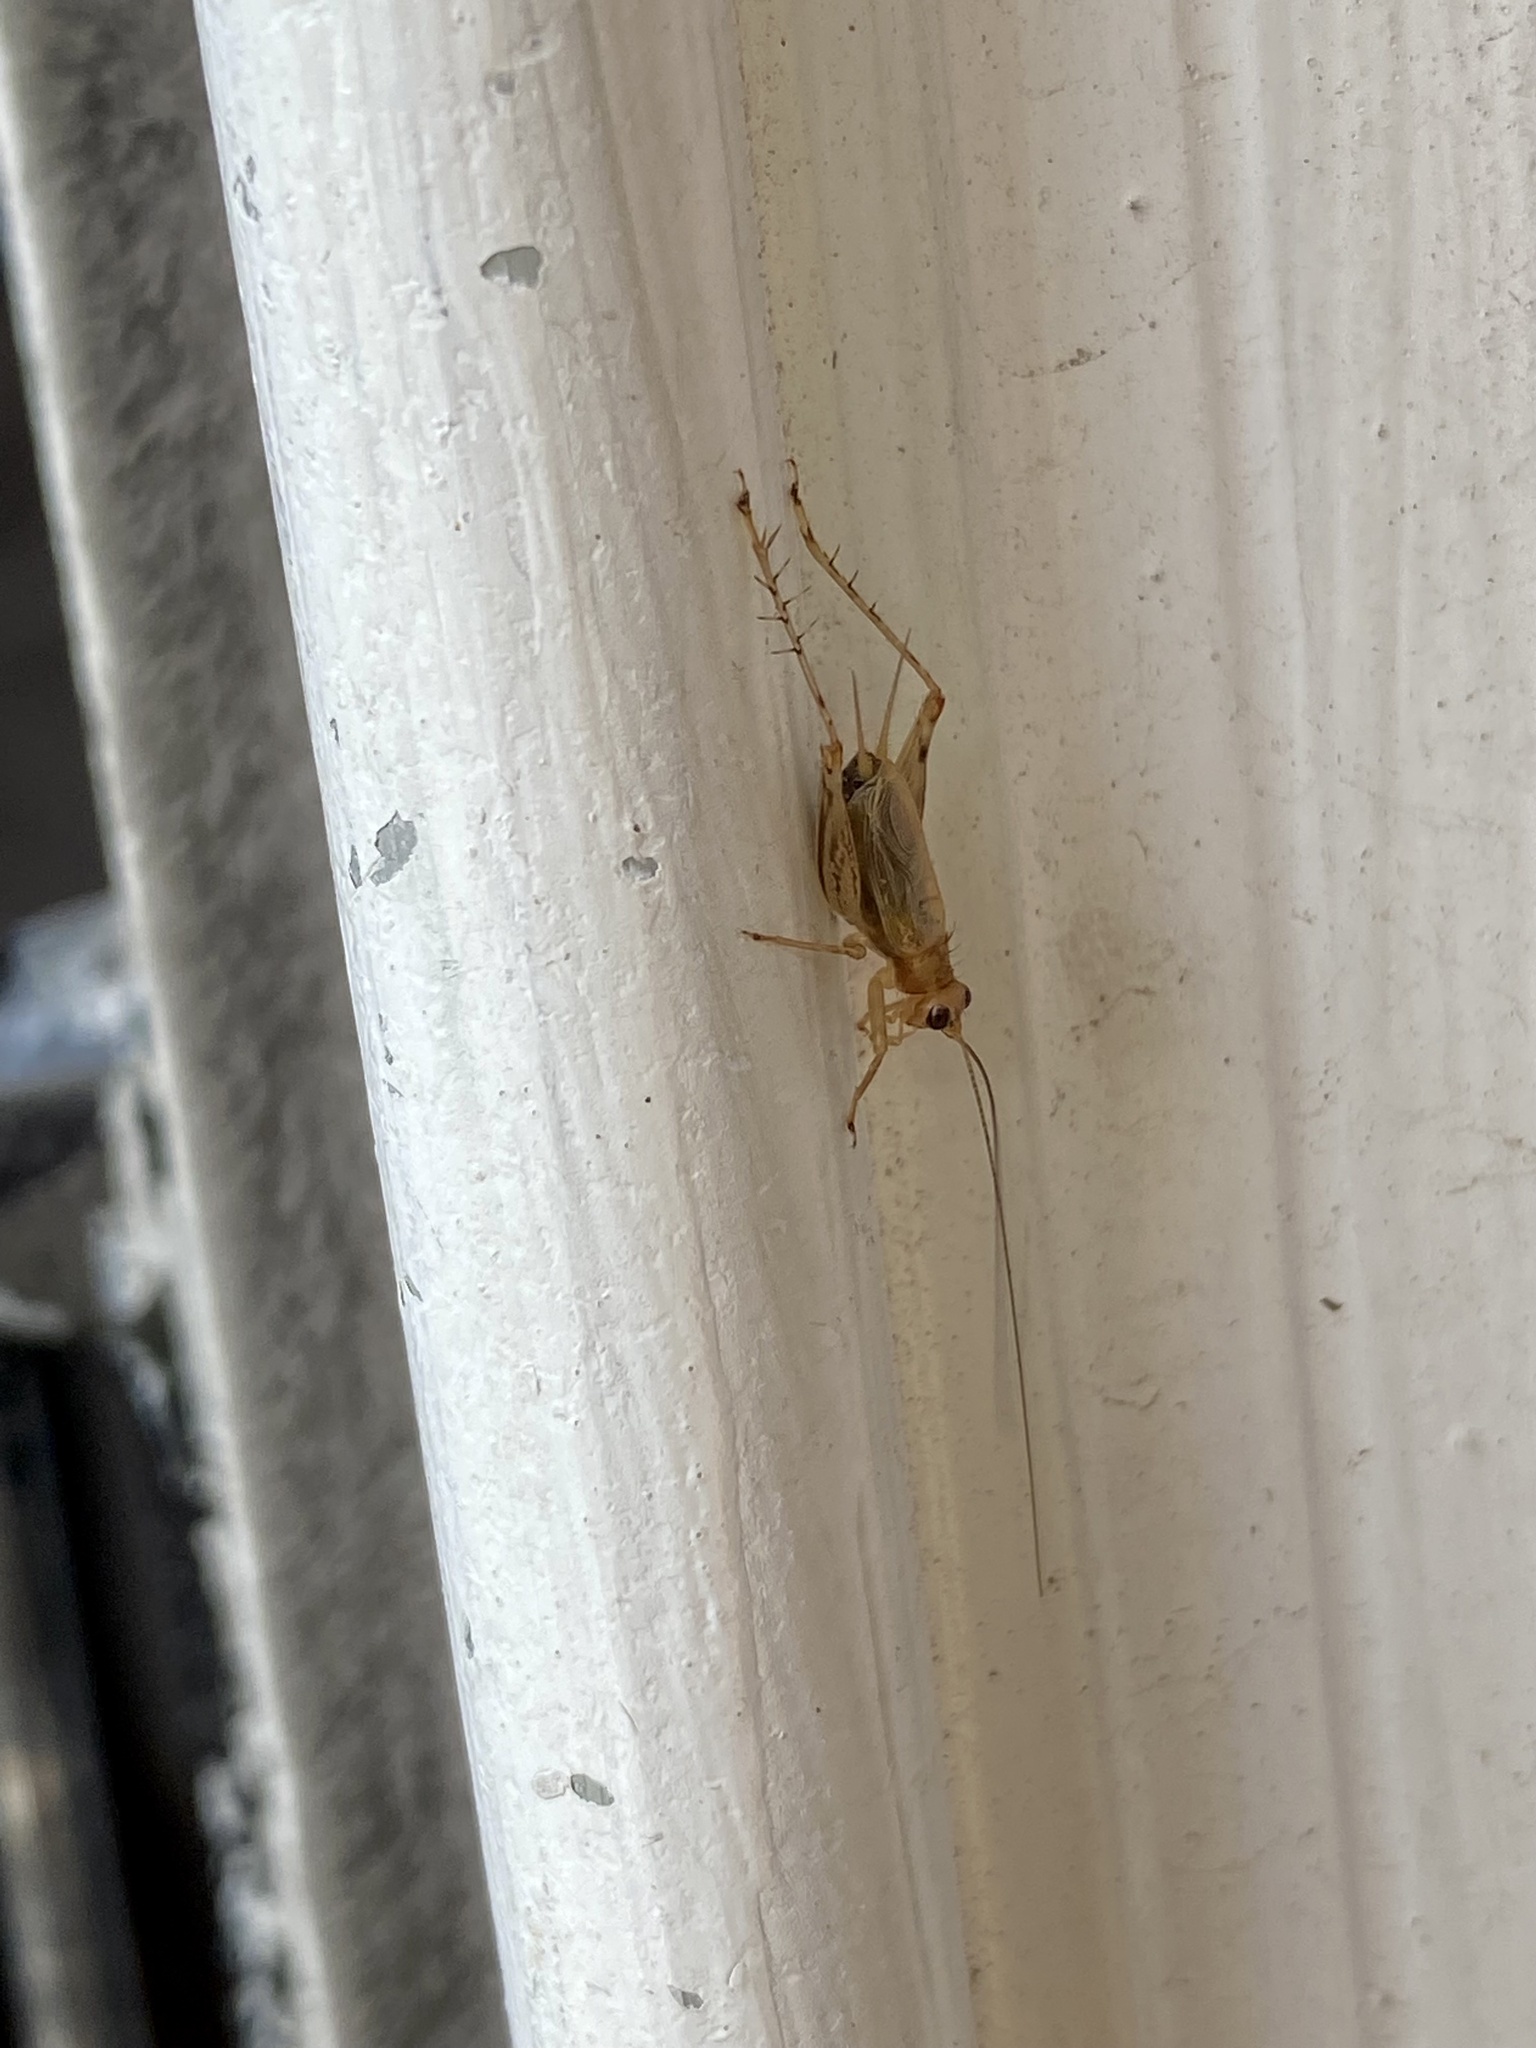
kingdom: Animalia
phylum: Arthropoda
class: Insecta
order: Orthoptera
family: Trigonidiidae
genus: Anaxipha
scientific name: Anaxipha exigua
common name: Say's bush cricket
